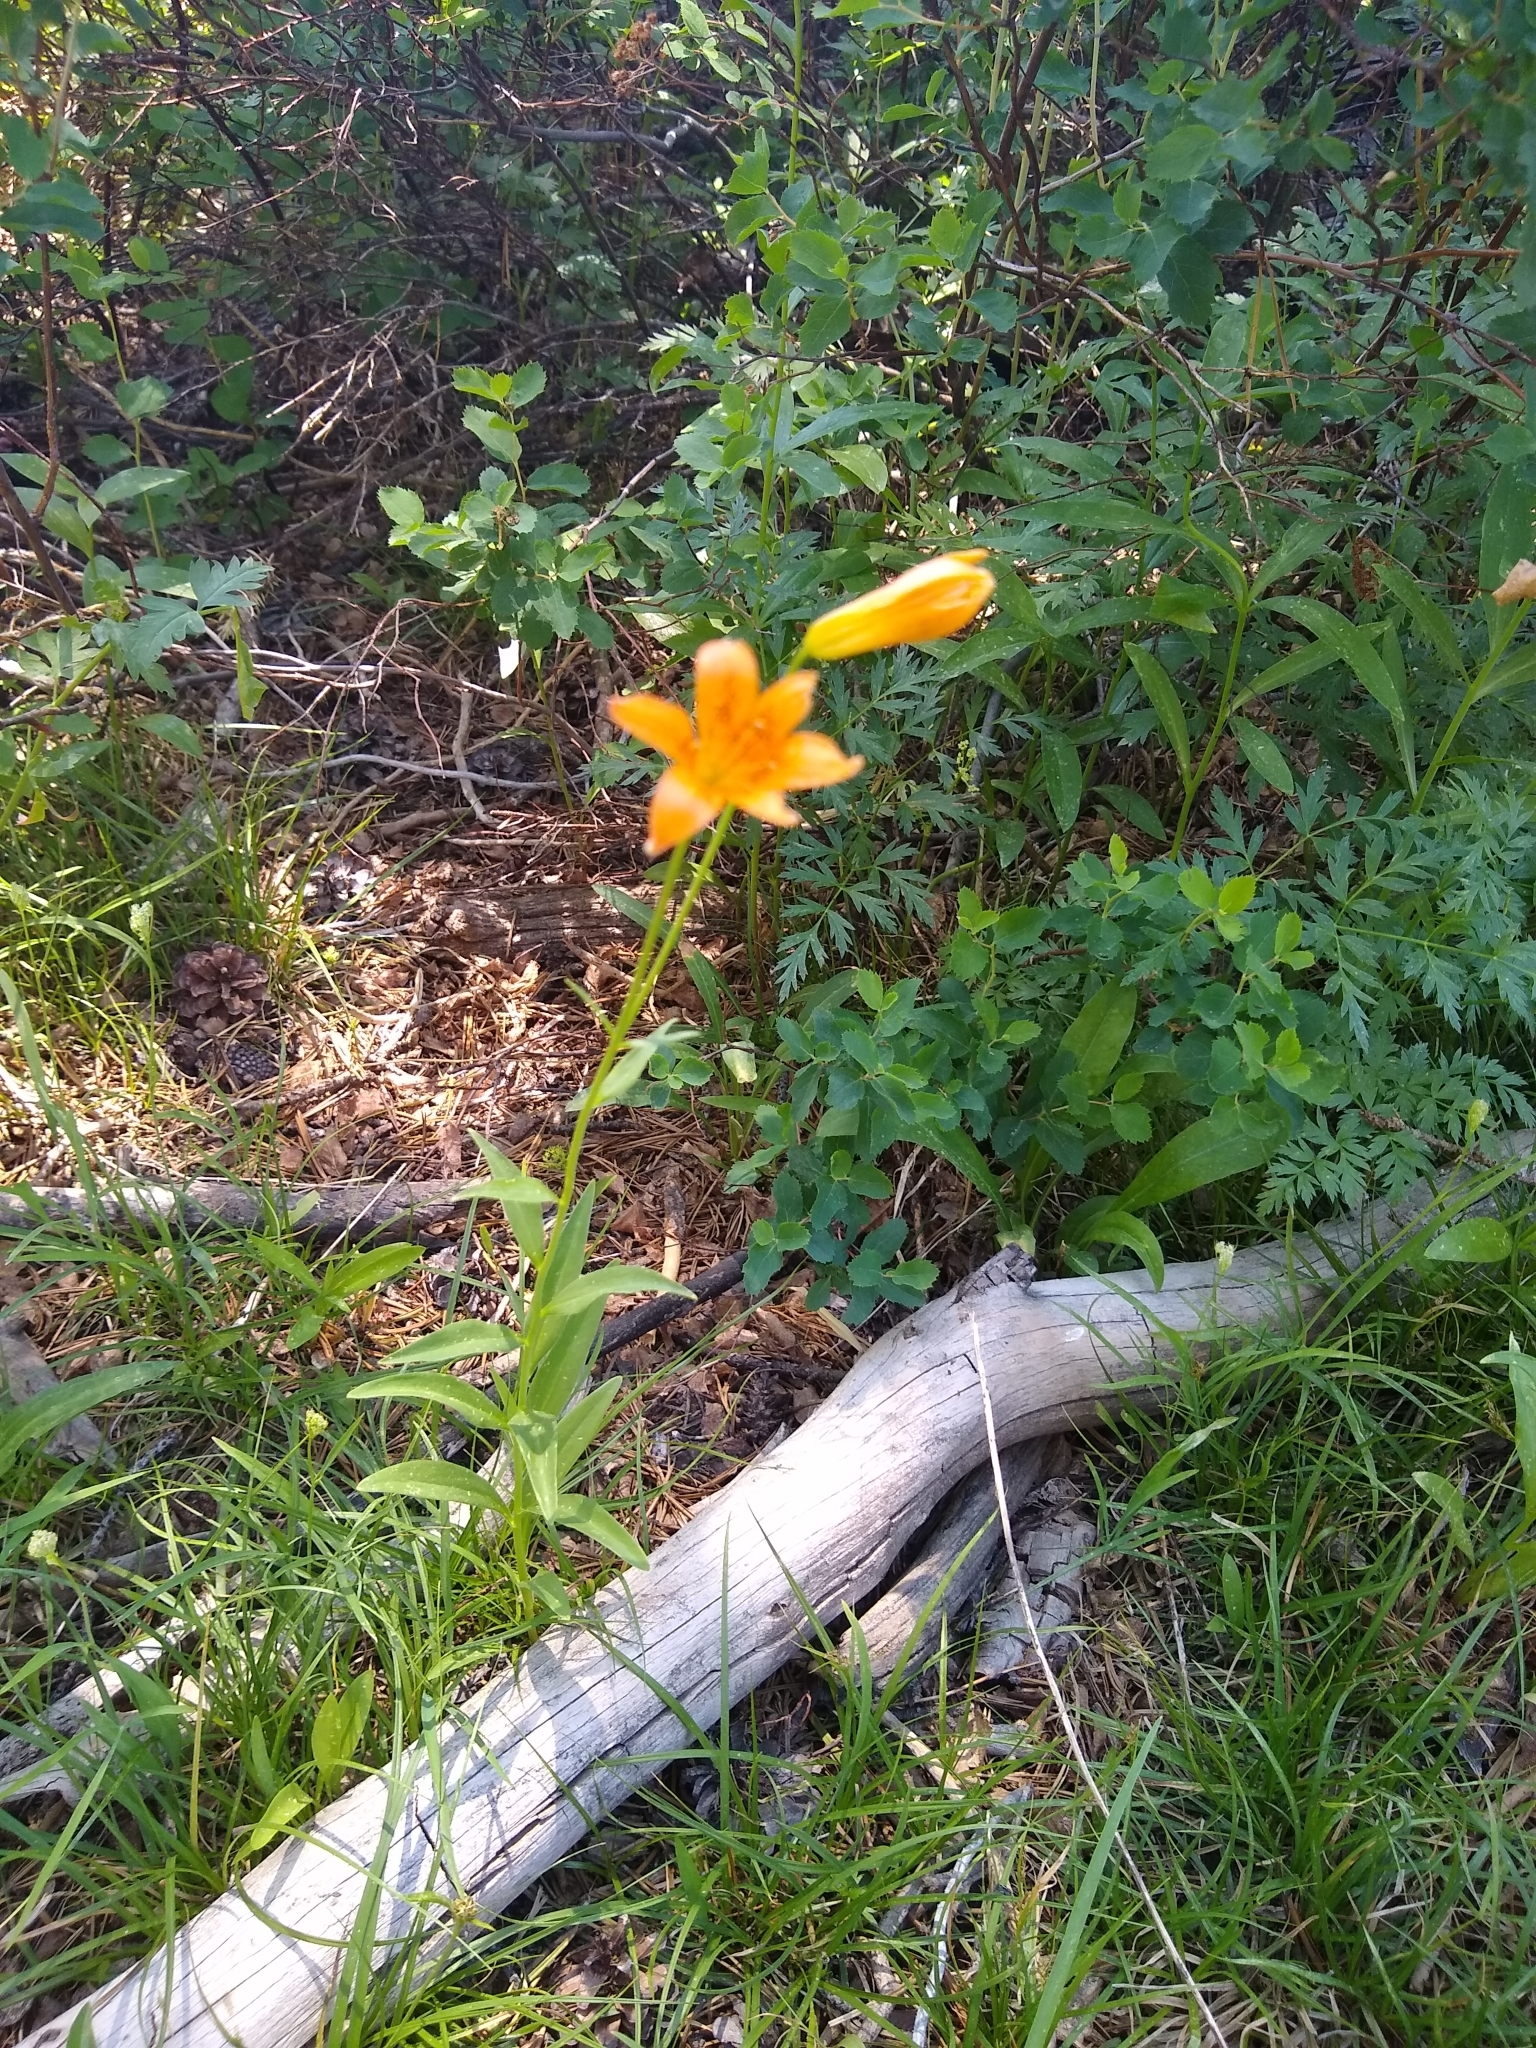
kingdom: Plantae
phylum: Tracheophyta
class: Liliopsida
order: Liliales
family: Liliaceae
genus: Lilium
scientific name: Lilium parvum
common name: Alpine lily
